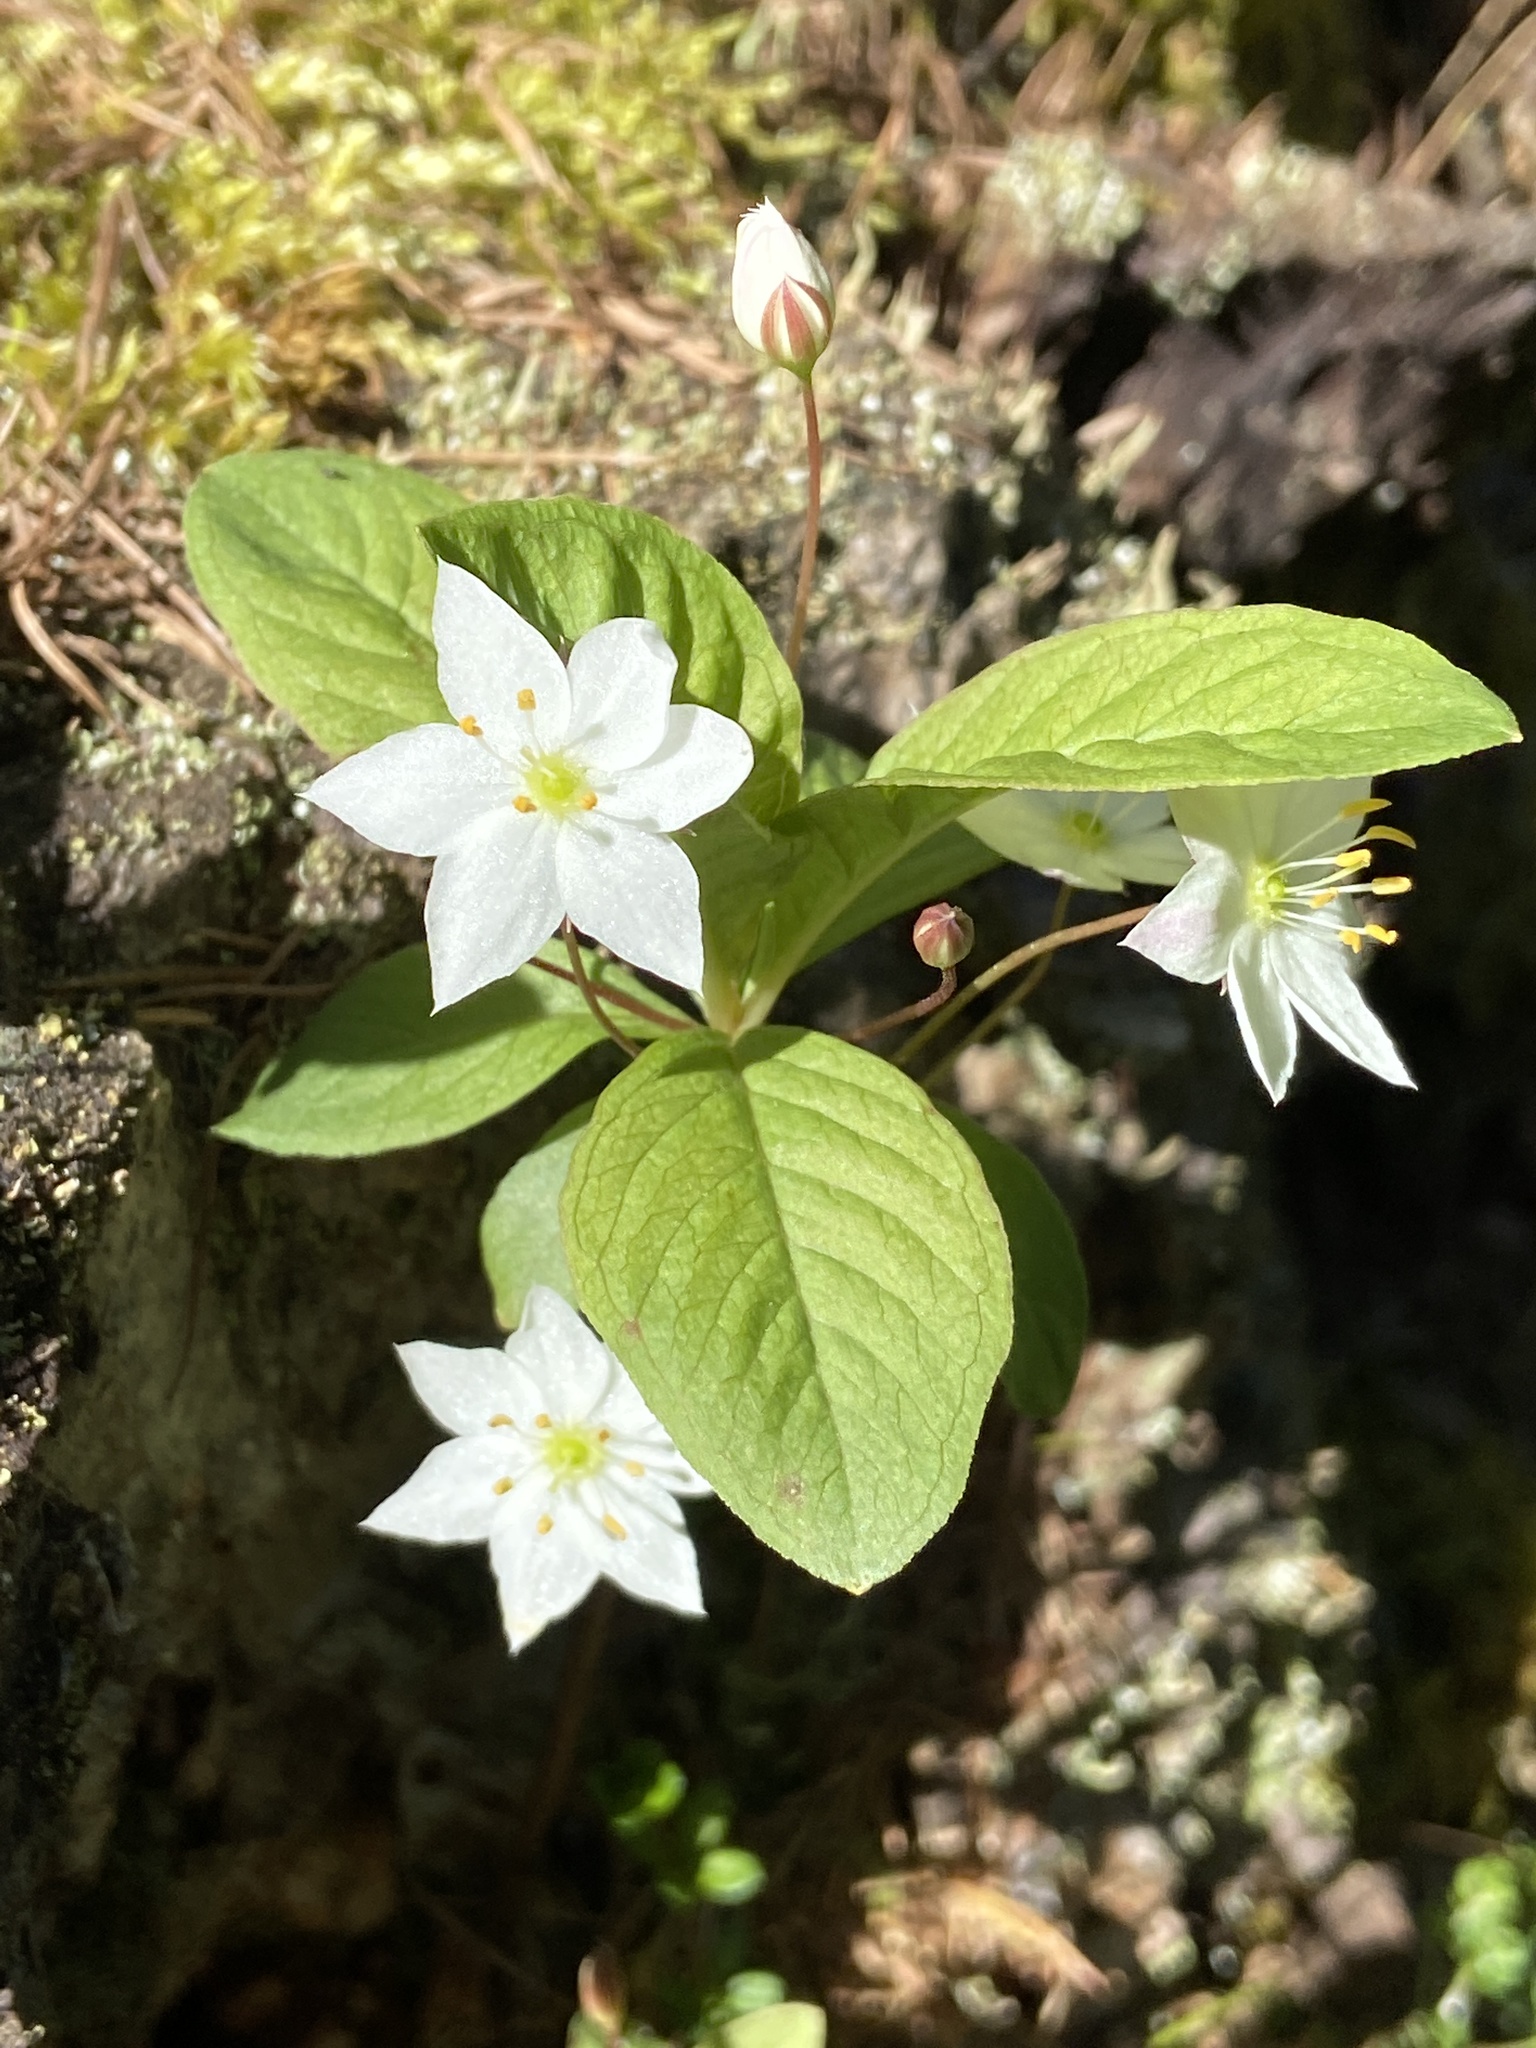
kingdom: Plantae
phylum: Tracheophyta
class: Magnoliopsida
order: Ericales
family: Primulaceae
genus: Lysimachia
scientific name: Lysimachia europaea
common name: Arctic starflower
